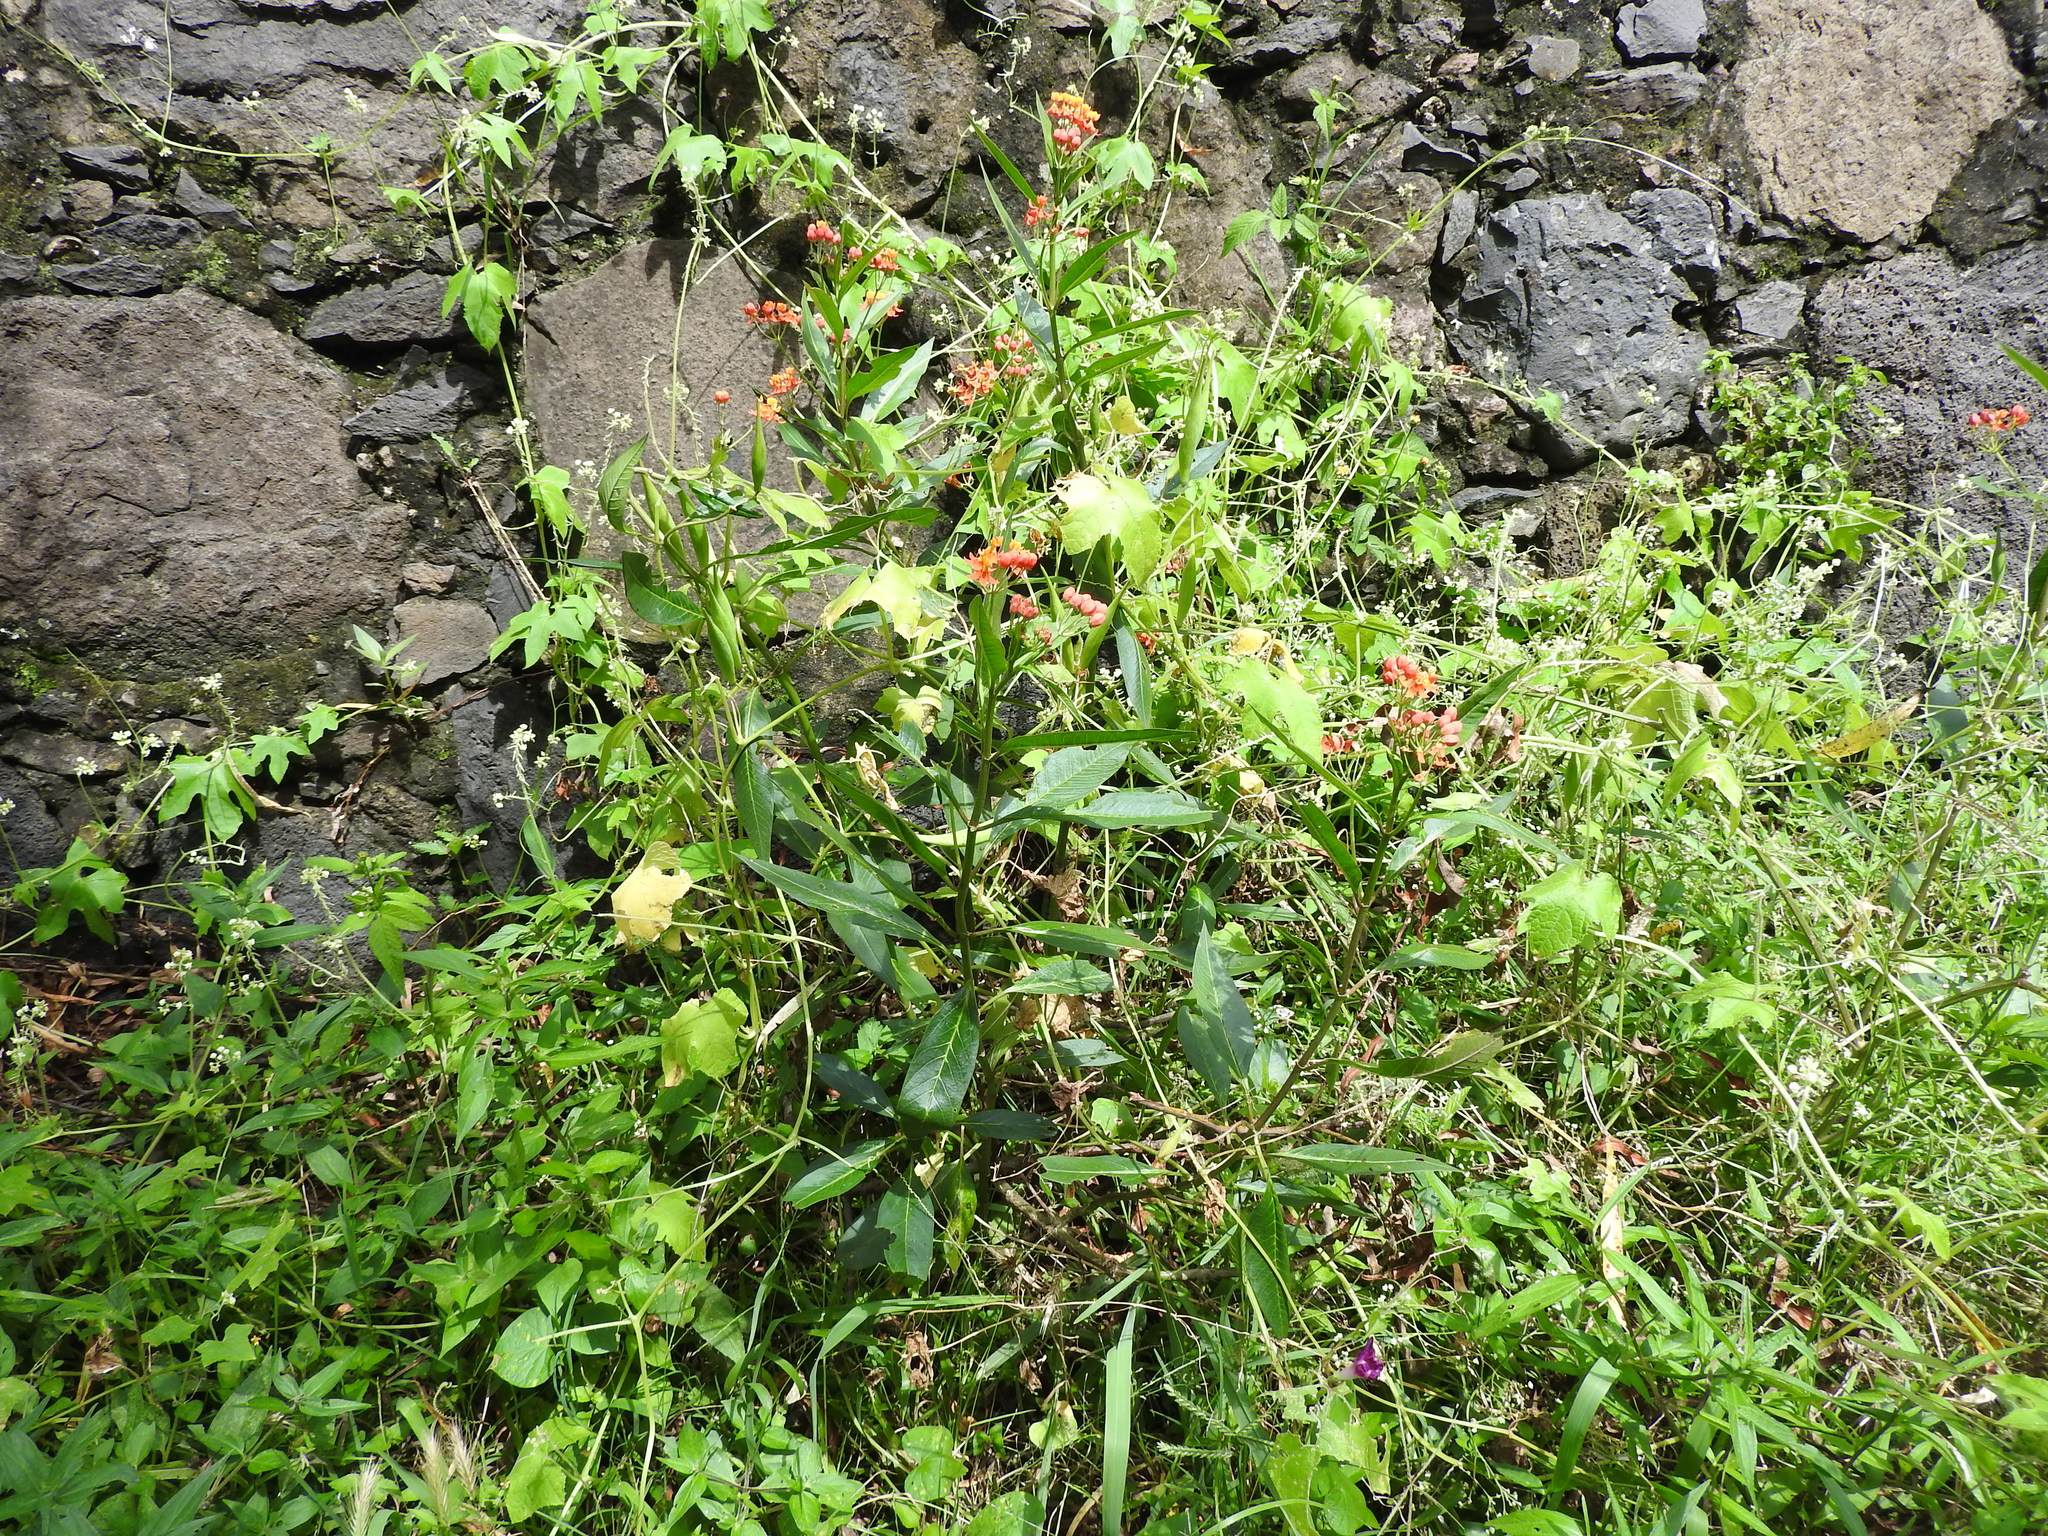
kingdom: Plantae
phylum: Tracheophyta
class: Magnoliopsida
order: Gentianales
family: Apocynaceae
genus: Asclepias
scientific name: Asclepias curassavica
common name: Bloodflower
